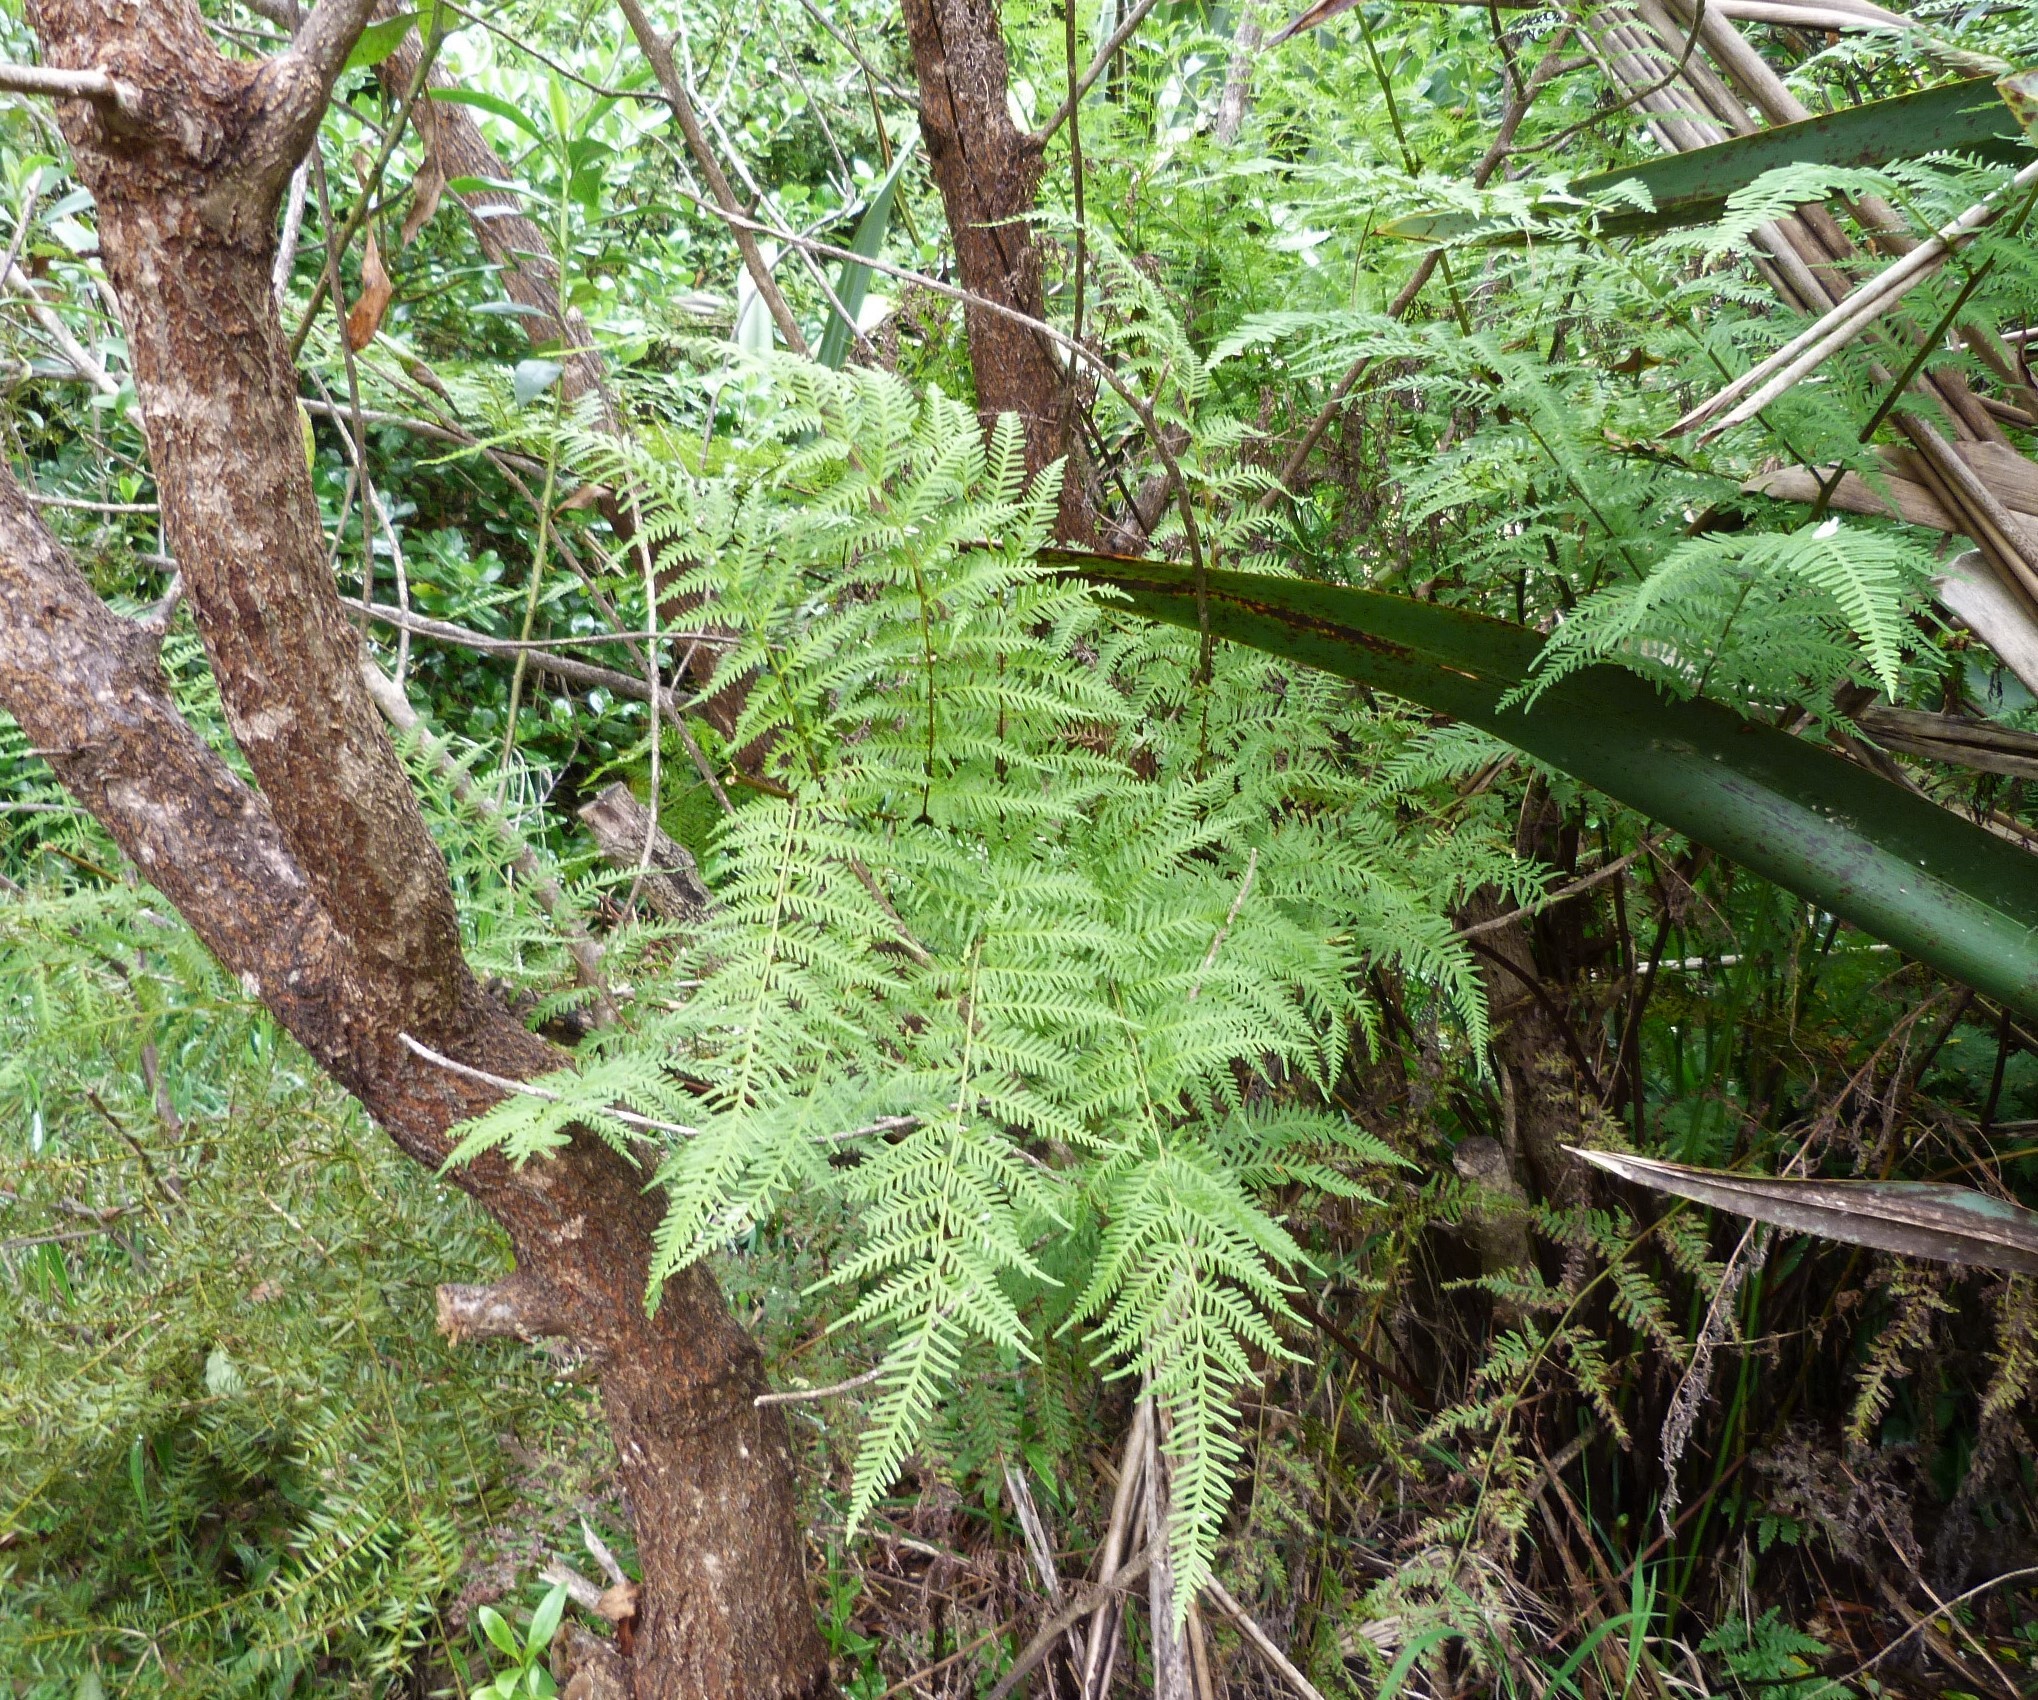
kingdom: Plantae
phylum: Tracheophyta
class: Polypodiopsida
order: Polypodiales
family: Pteridaceae
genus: Pteris
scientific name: Pteris tremula
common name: Australian brake
